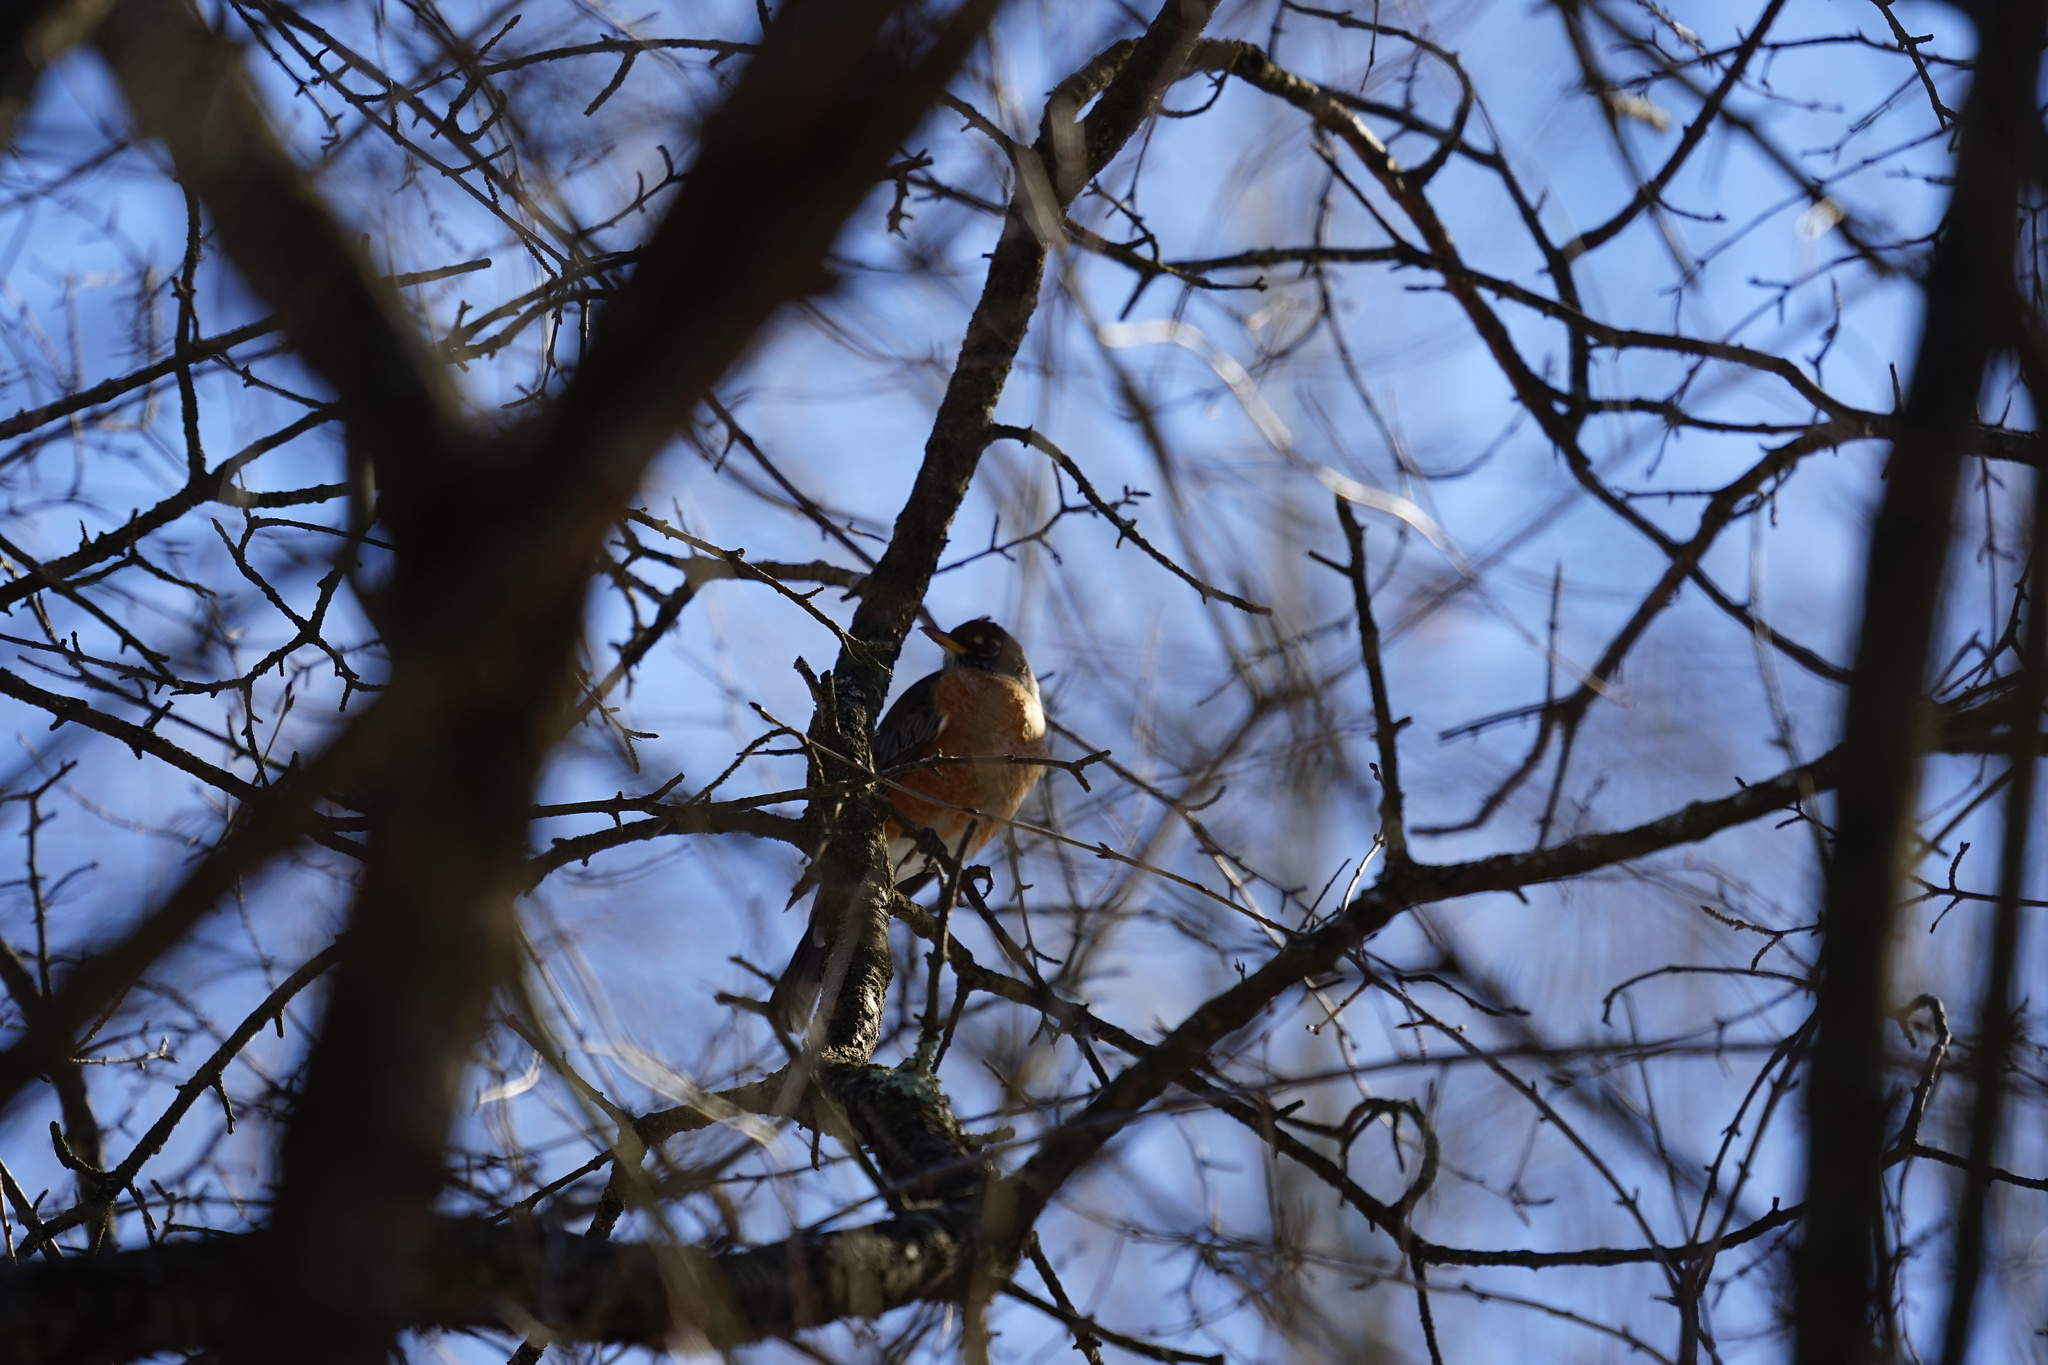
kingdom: Animalia
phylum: Chordata
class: Aves
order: Passeriformes
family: Turdidae
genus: Turdus
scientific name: Turdus migratorius
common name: American robin
